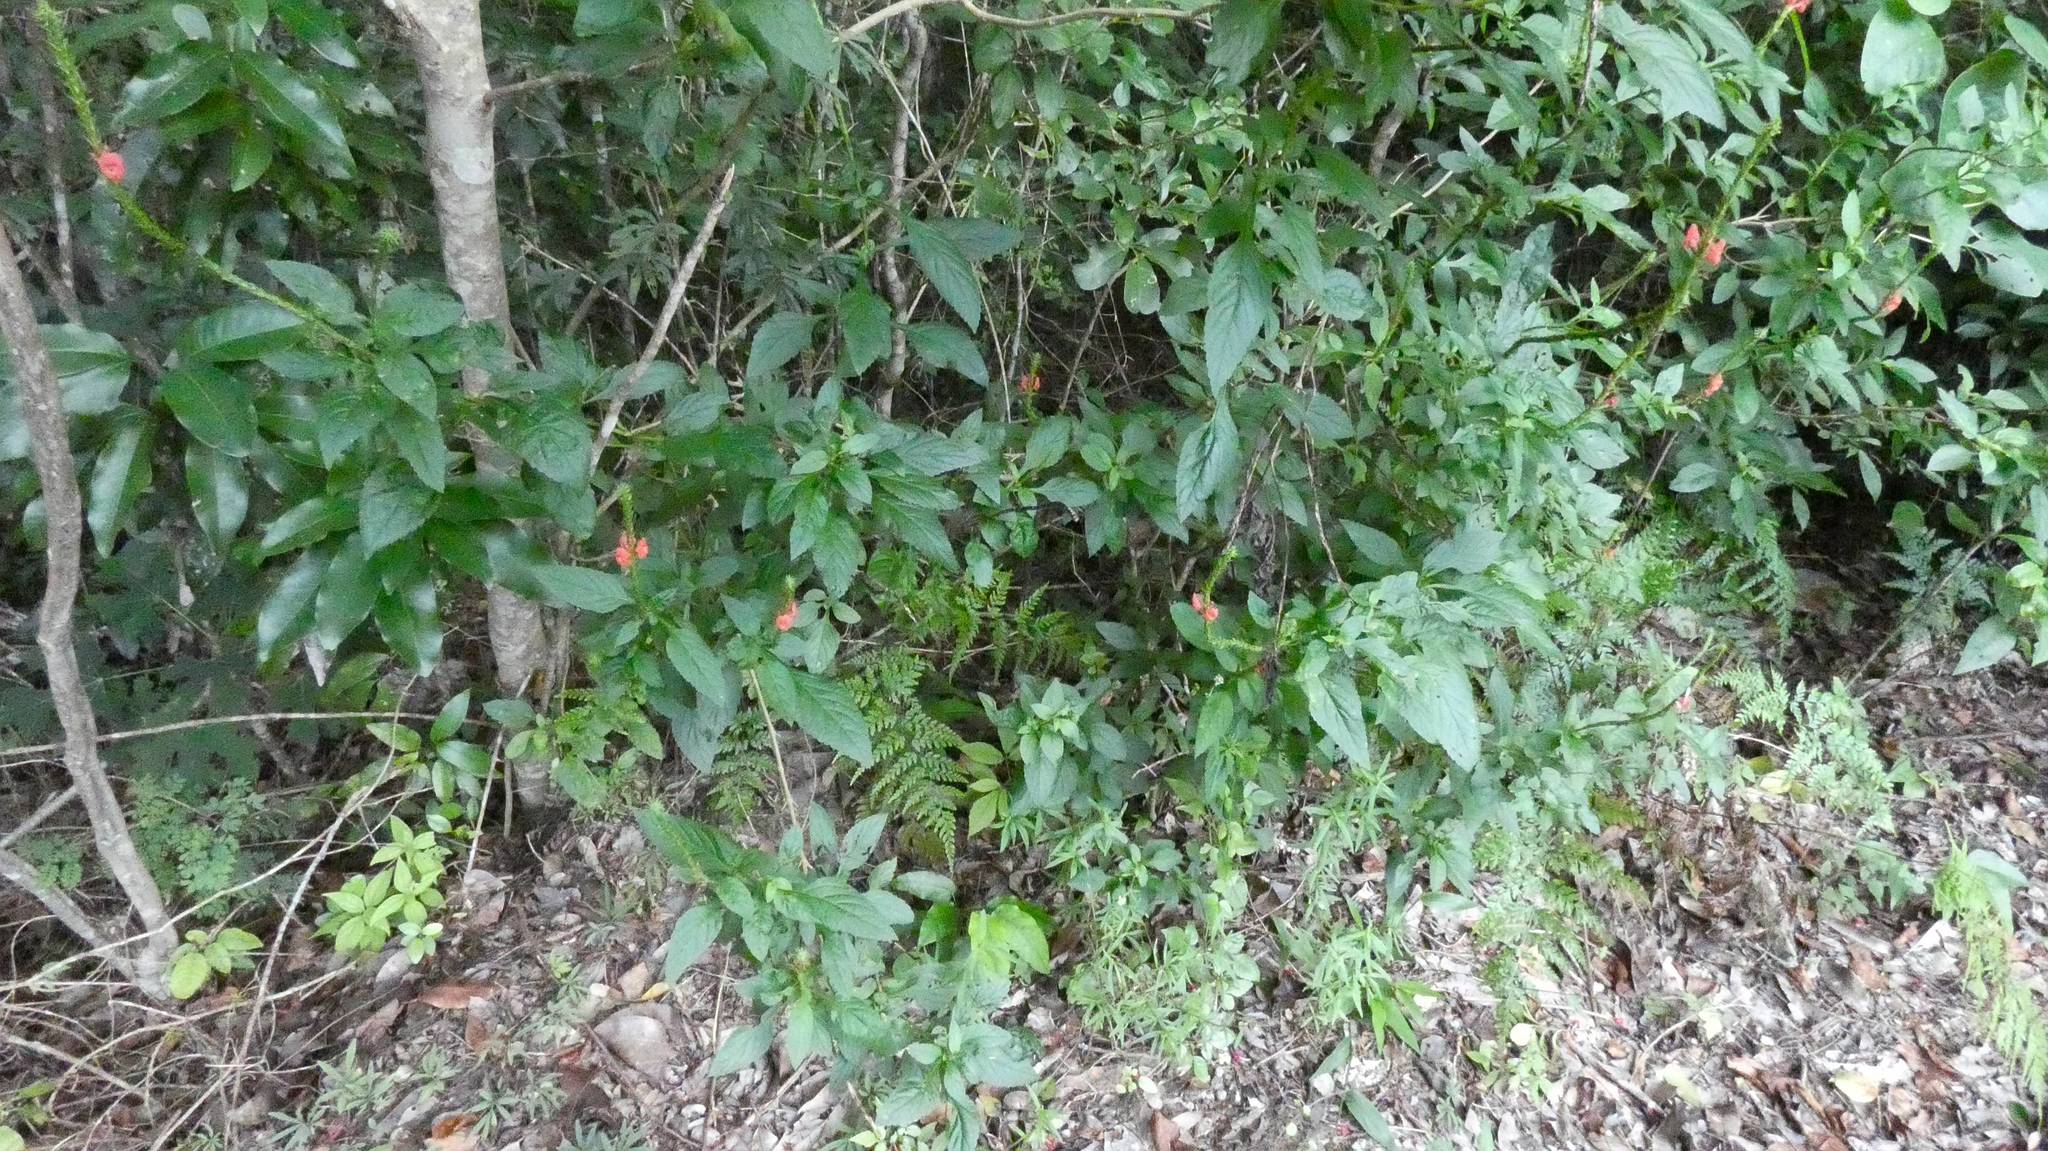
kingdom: Plantae
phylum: Tracheophyta
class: Magnoliopsida
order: Lamiales
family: Verbenaceae
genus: Stachytarpheta
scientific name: Stachytarpheta miniacea
